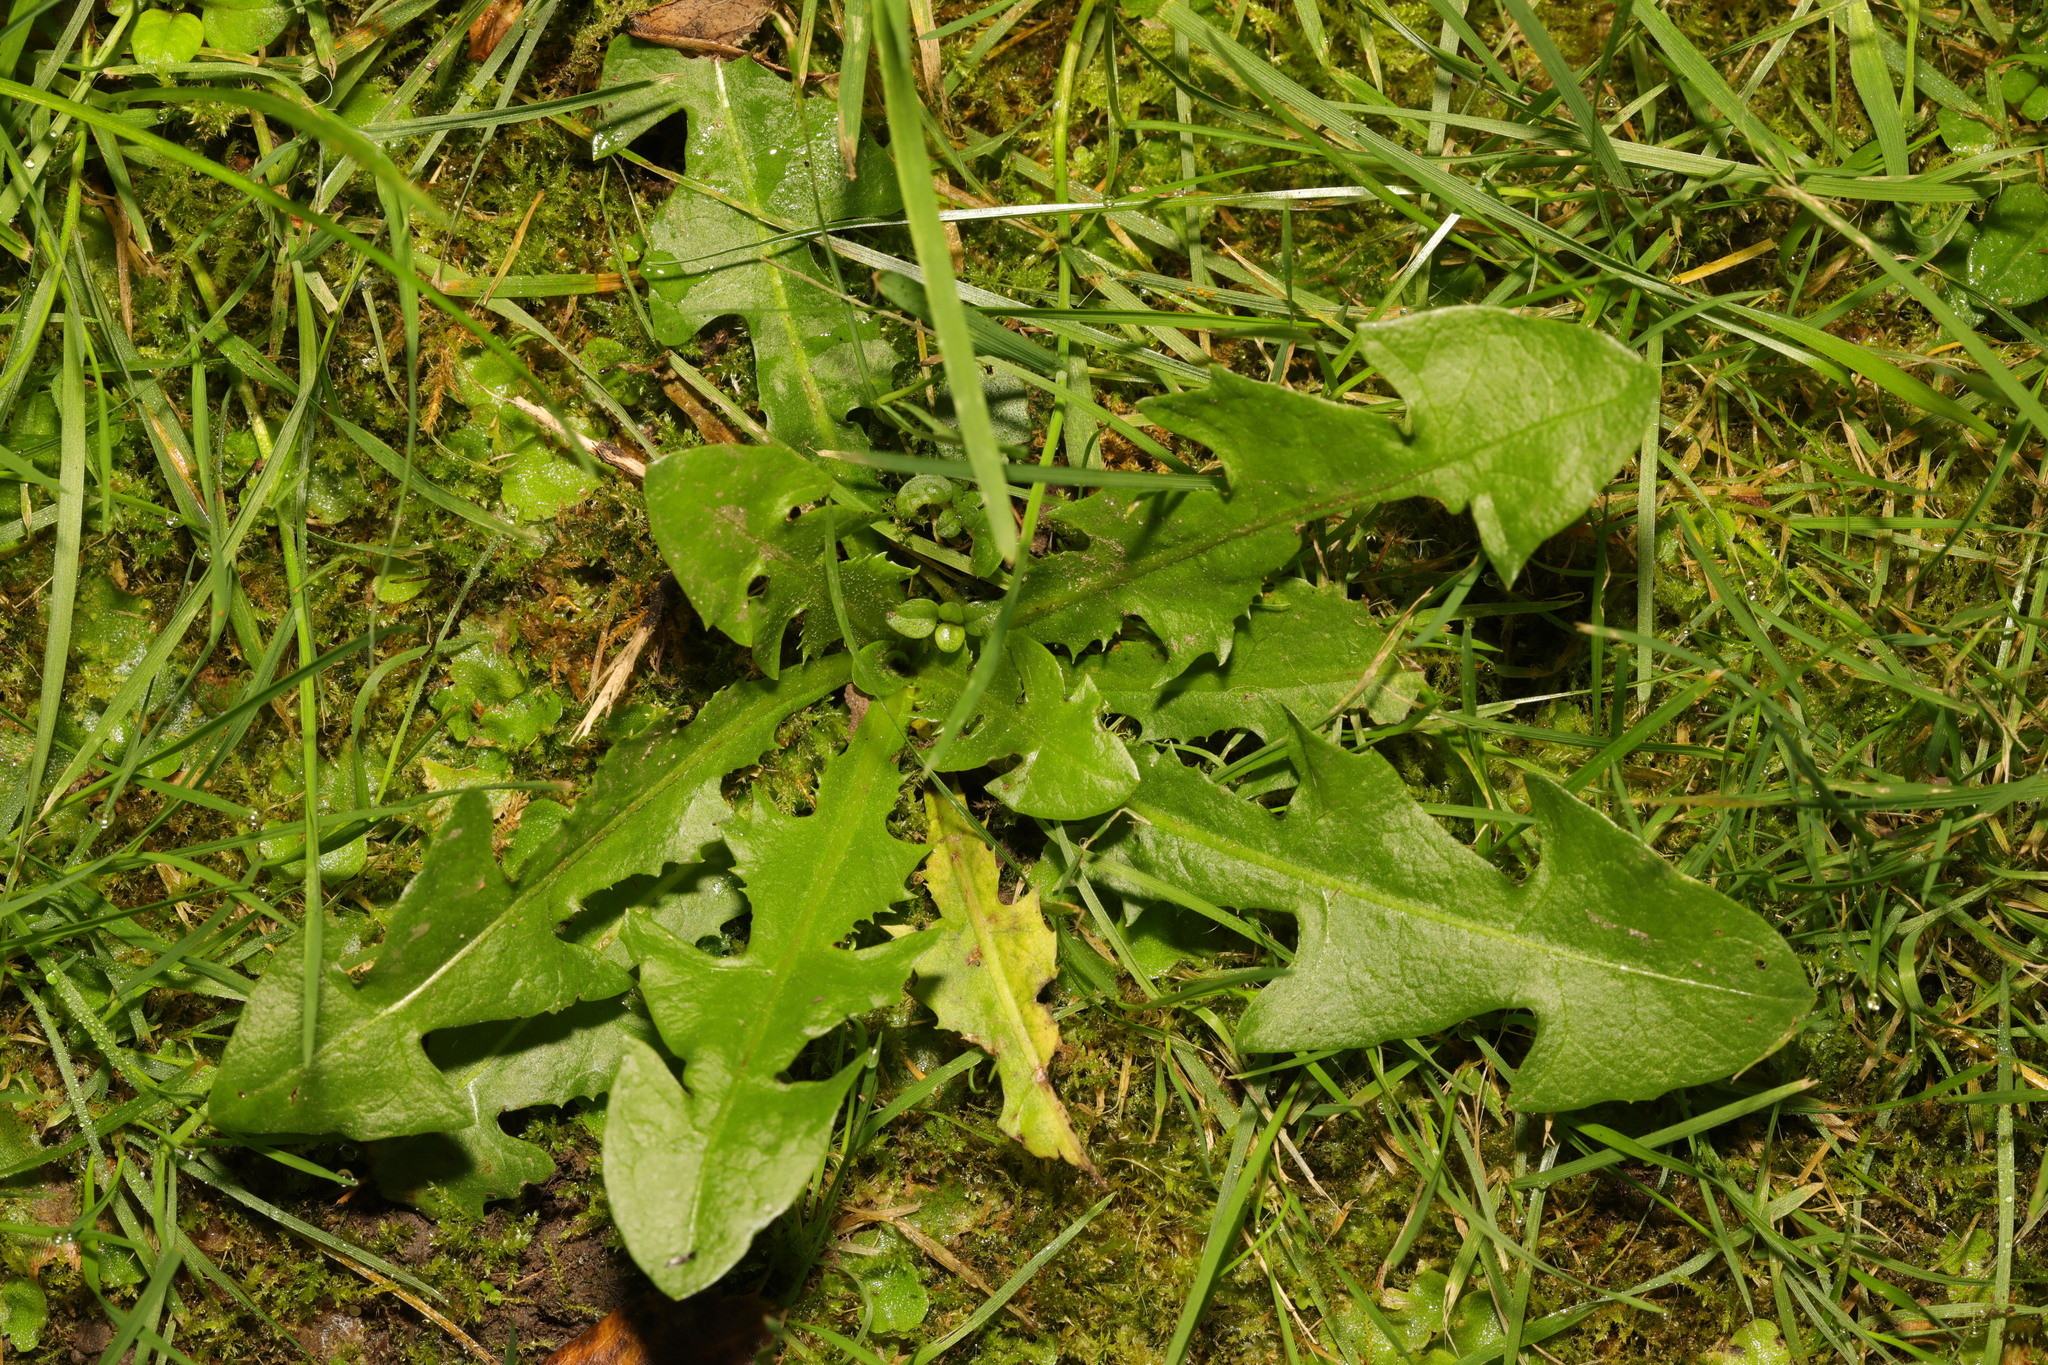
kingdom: Plantae
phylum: Tracheophyta
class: Magnoliopsida
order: Asterales
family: Asteraceae
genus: Taraxacum
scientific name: Taraxacum officinale
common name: Common dandelion
